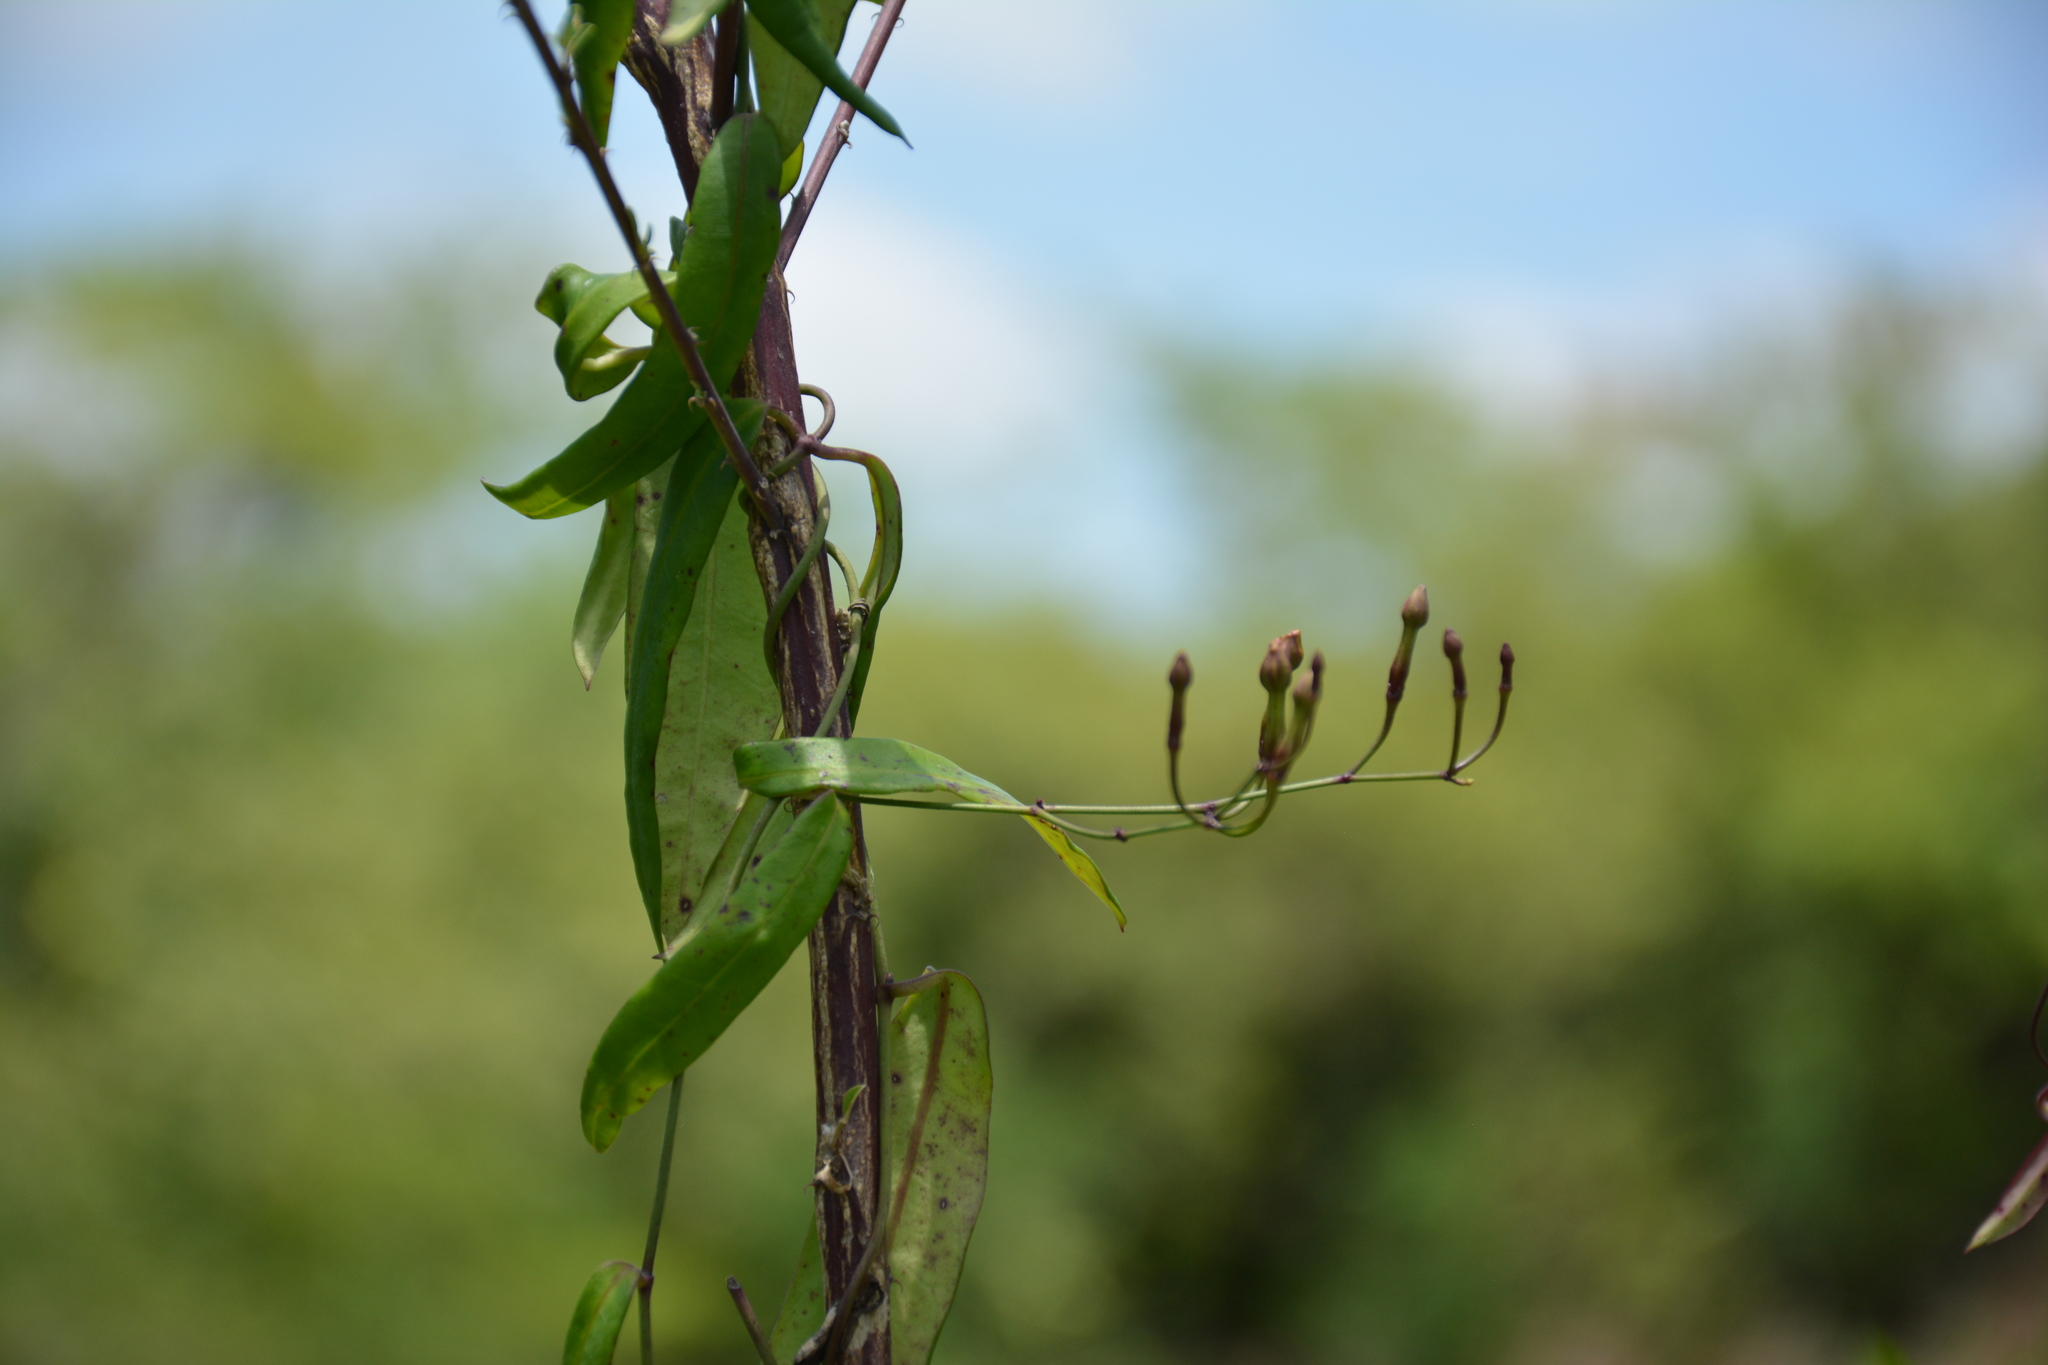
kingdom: Plantae
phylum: Tracheophyta
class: Magnoliopsida
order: Gentianales
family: Apocynaceae
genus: Mandevilla
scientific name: Mandevilla tubiflora
